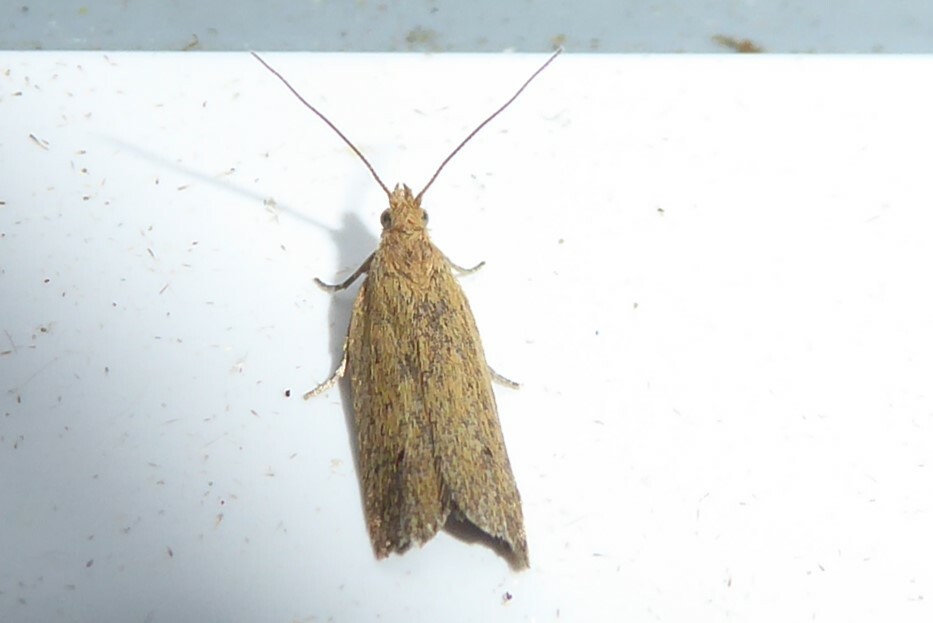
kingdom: Animalia
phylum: Arthropoda
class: Insecta
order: Lepidoptera
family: Tortricidae
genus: Epichorista
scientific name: Epichorista siriana
